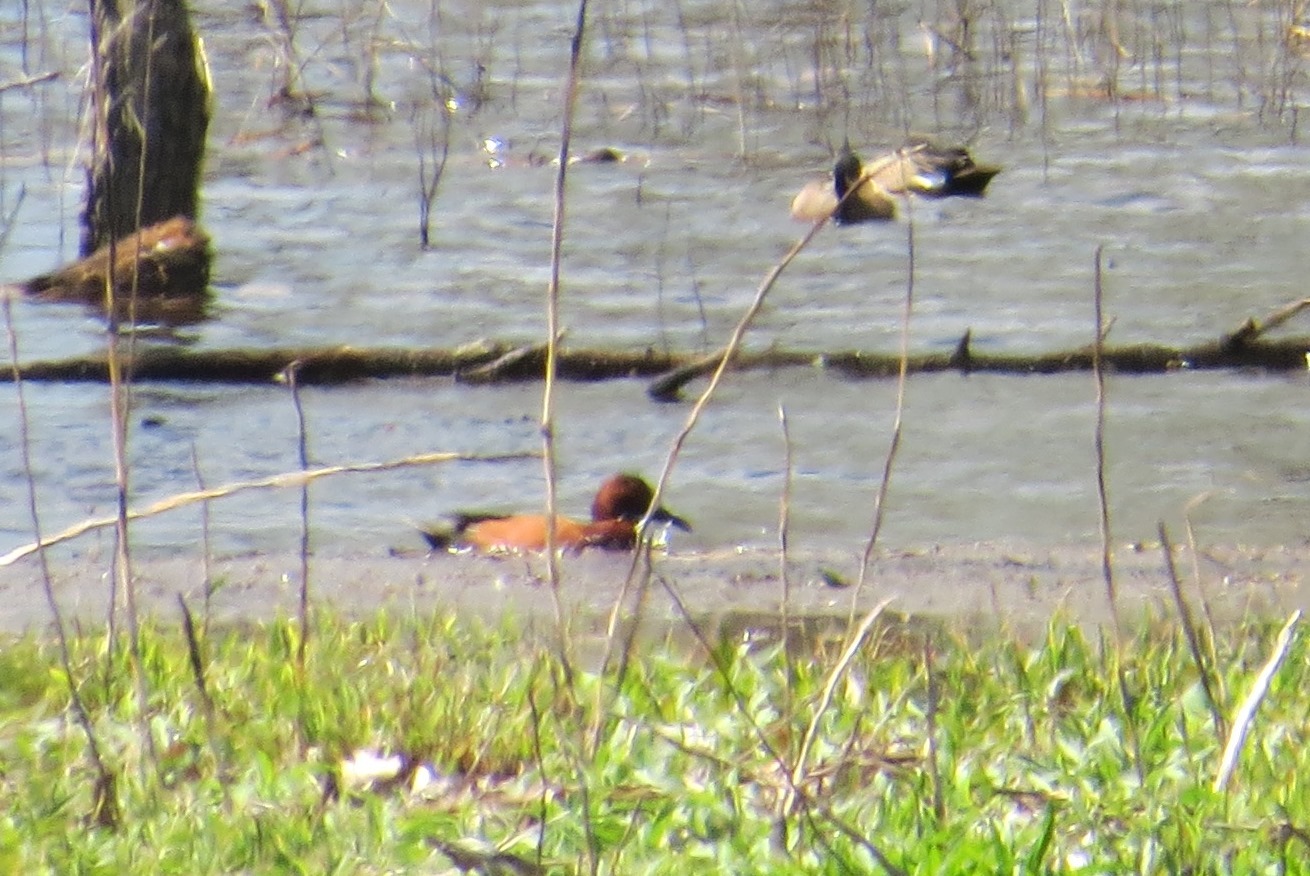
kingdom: Animalia
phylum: Chordata
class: Aves
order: Anseriformes
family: Anatidae
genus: Spatula
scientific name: Spatula cyanoptera
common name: Cinnamon teal
